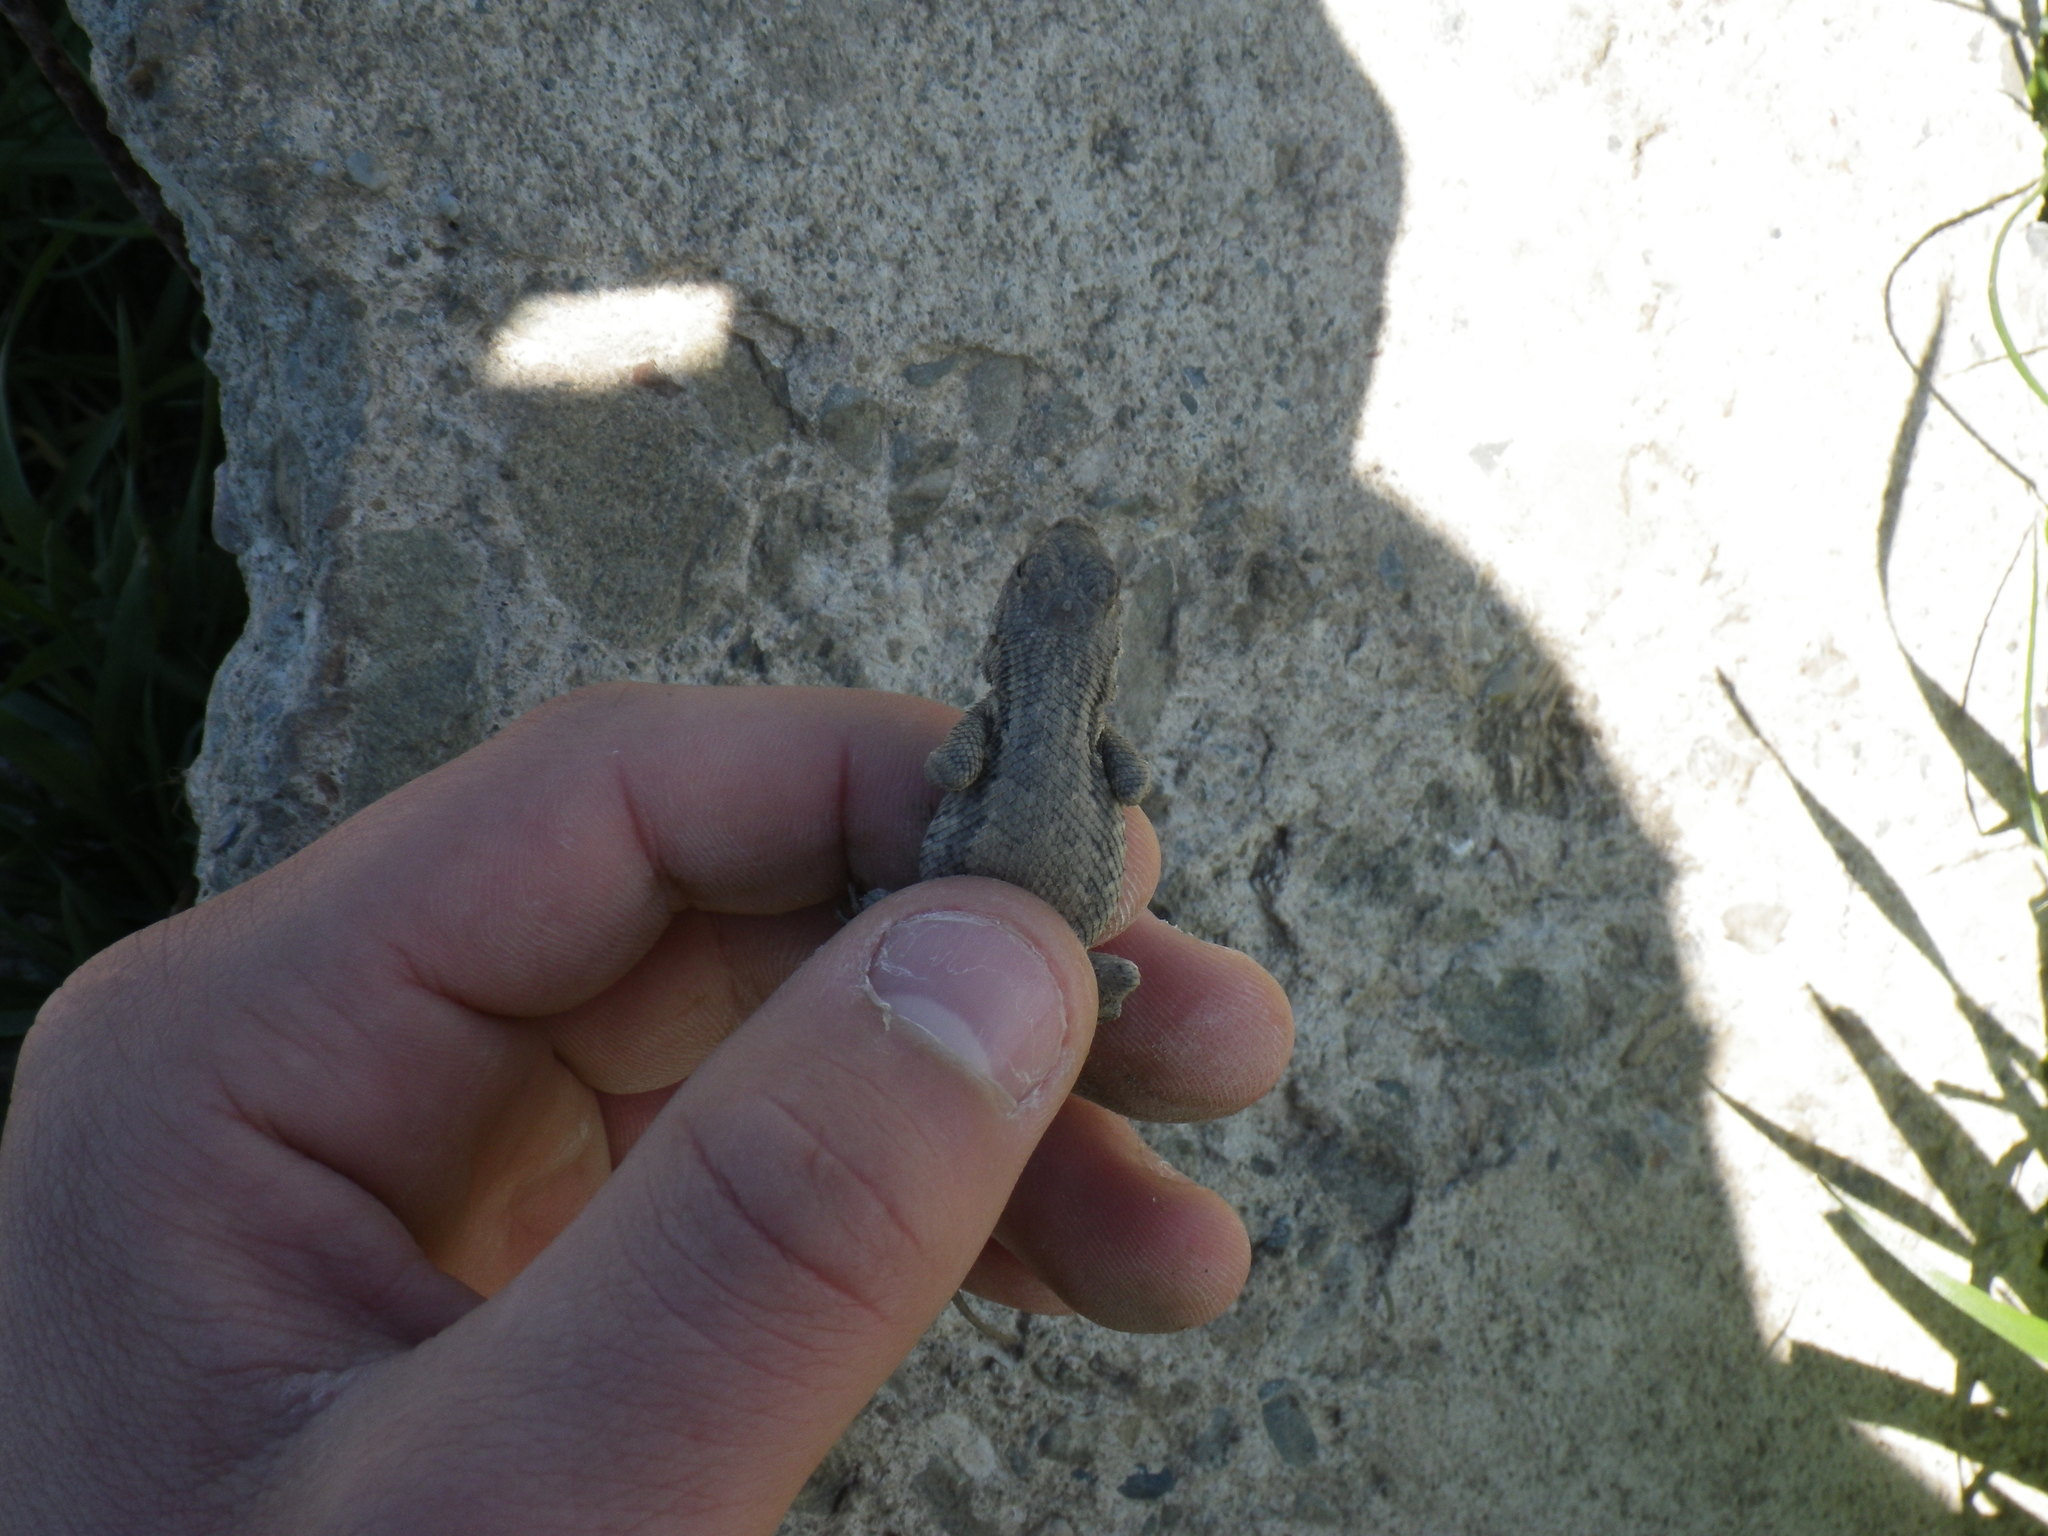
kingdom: Animalia
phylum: Chordata
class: Squamata
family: Phrynosomatidae
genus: Sceloporus
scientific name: Sceloporus occidentalis
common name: Western fence lizard
